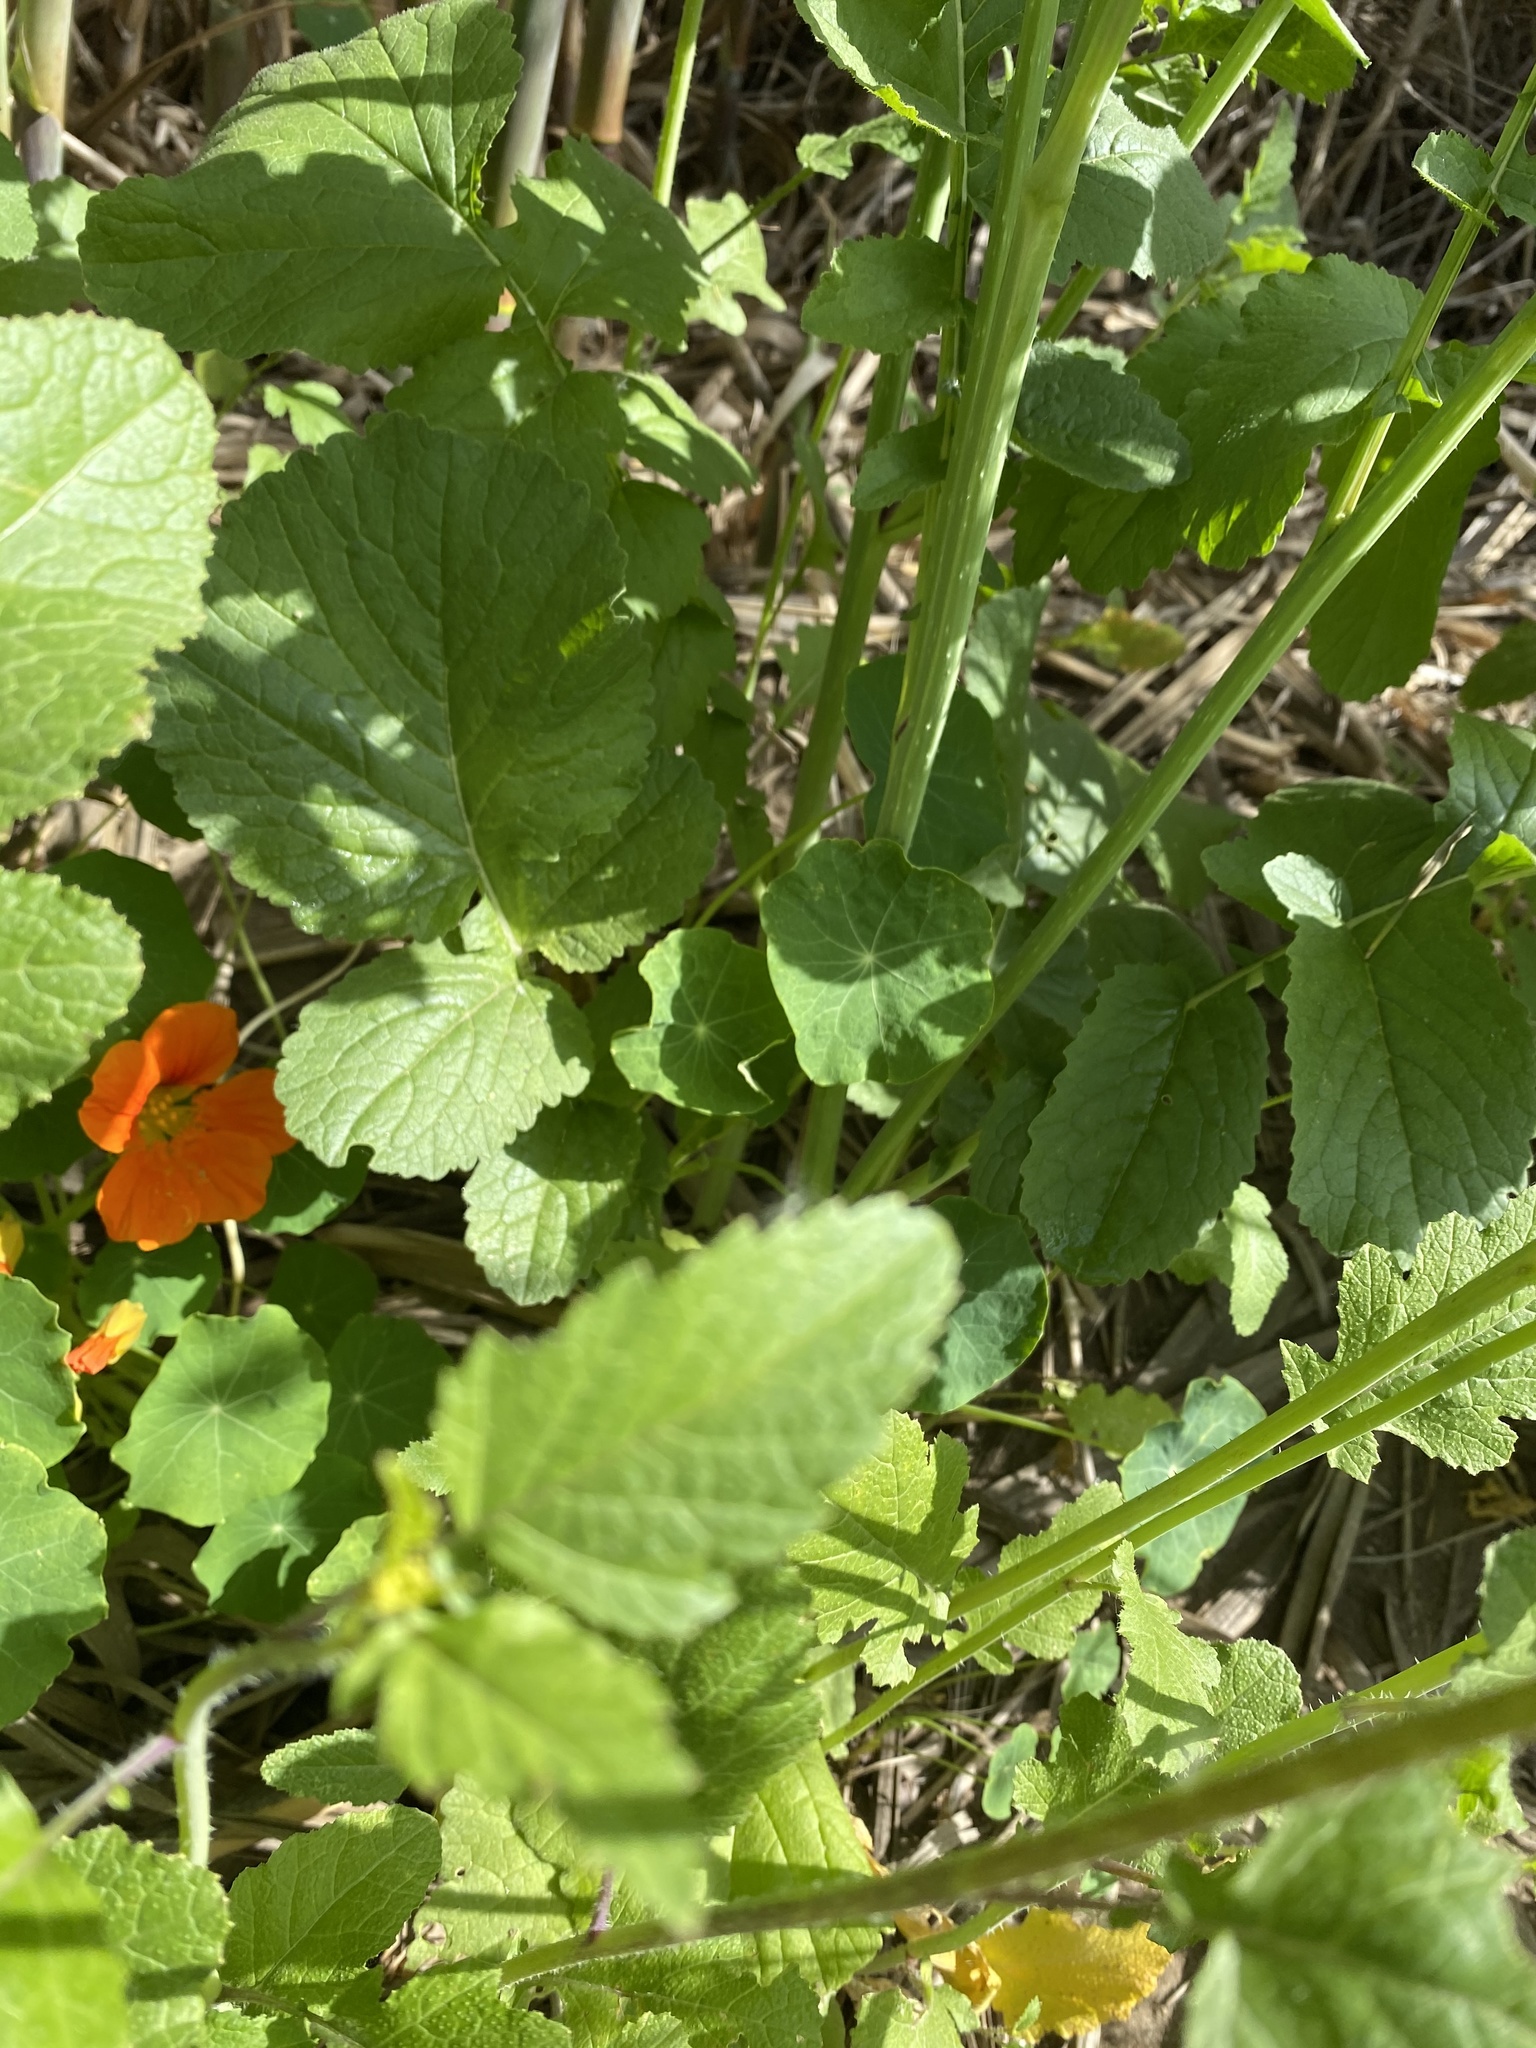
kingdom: Plantae
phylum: Tracheophyta
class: Magnoliopsida
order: Brassicales
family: Tropaeolaceae
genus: Tropaeolum
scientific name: Tropaeolum majus
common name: Nasturtium
